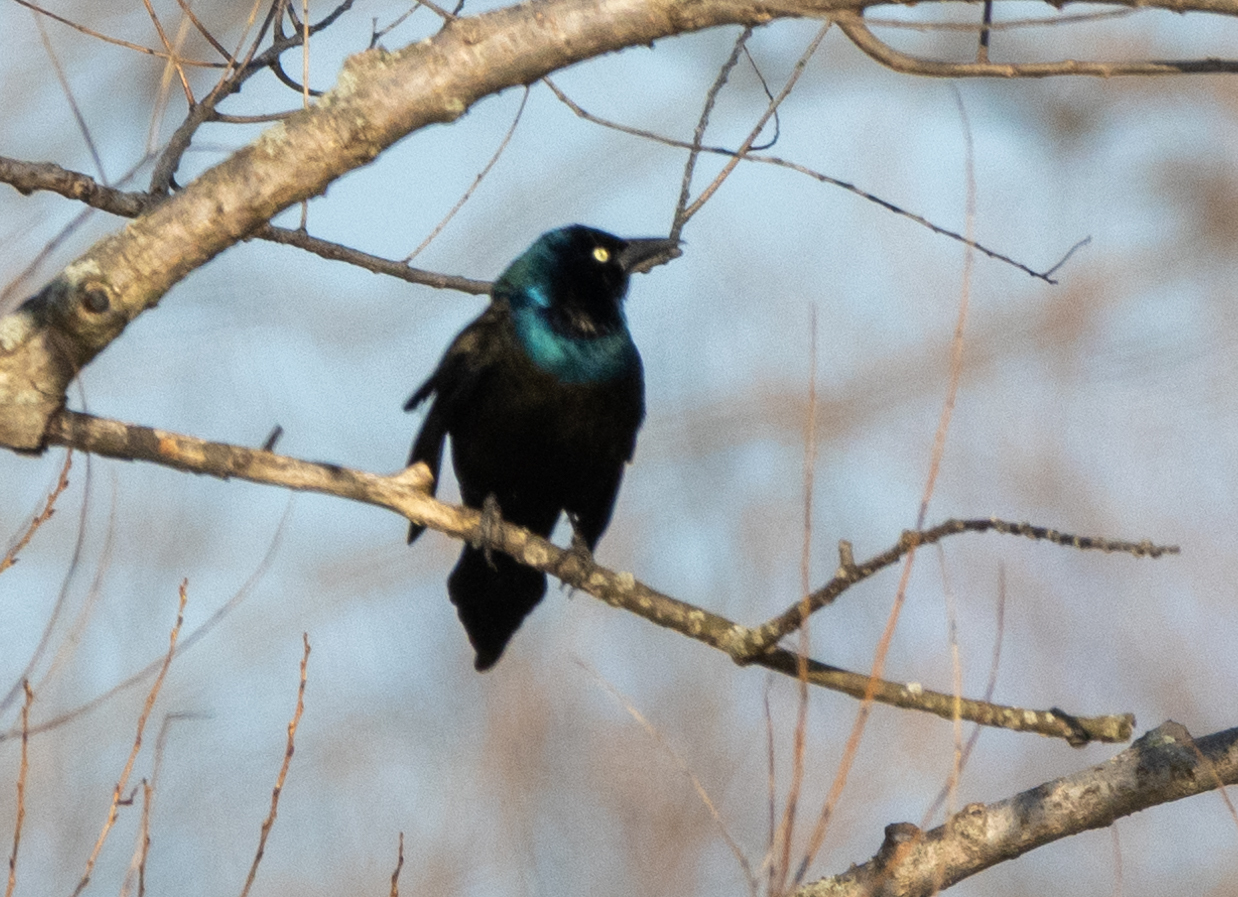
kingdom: Animalia
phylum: Chordata
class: Aves
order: Passeriformes
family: Icteridae
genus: Quiscalus
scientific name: Quiscalus quiscula
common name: Common grackle
